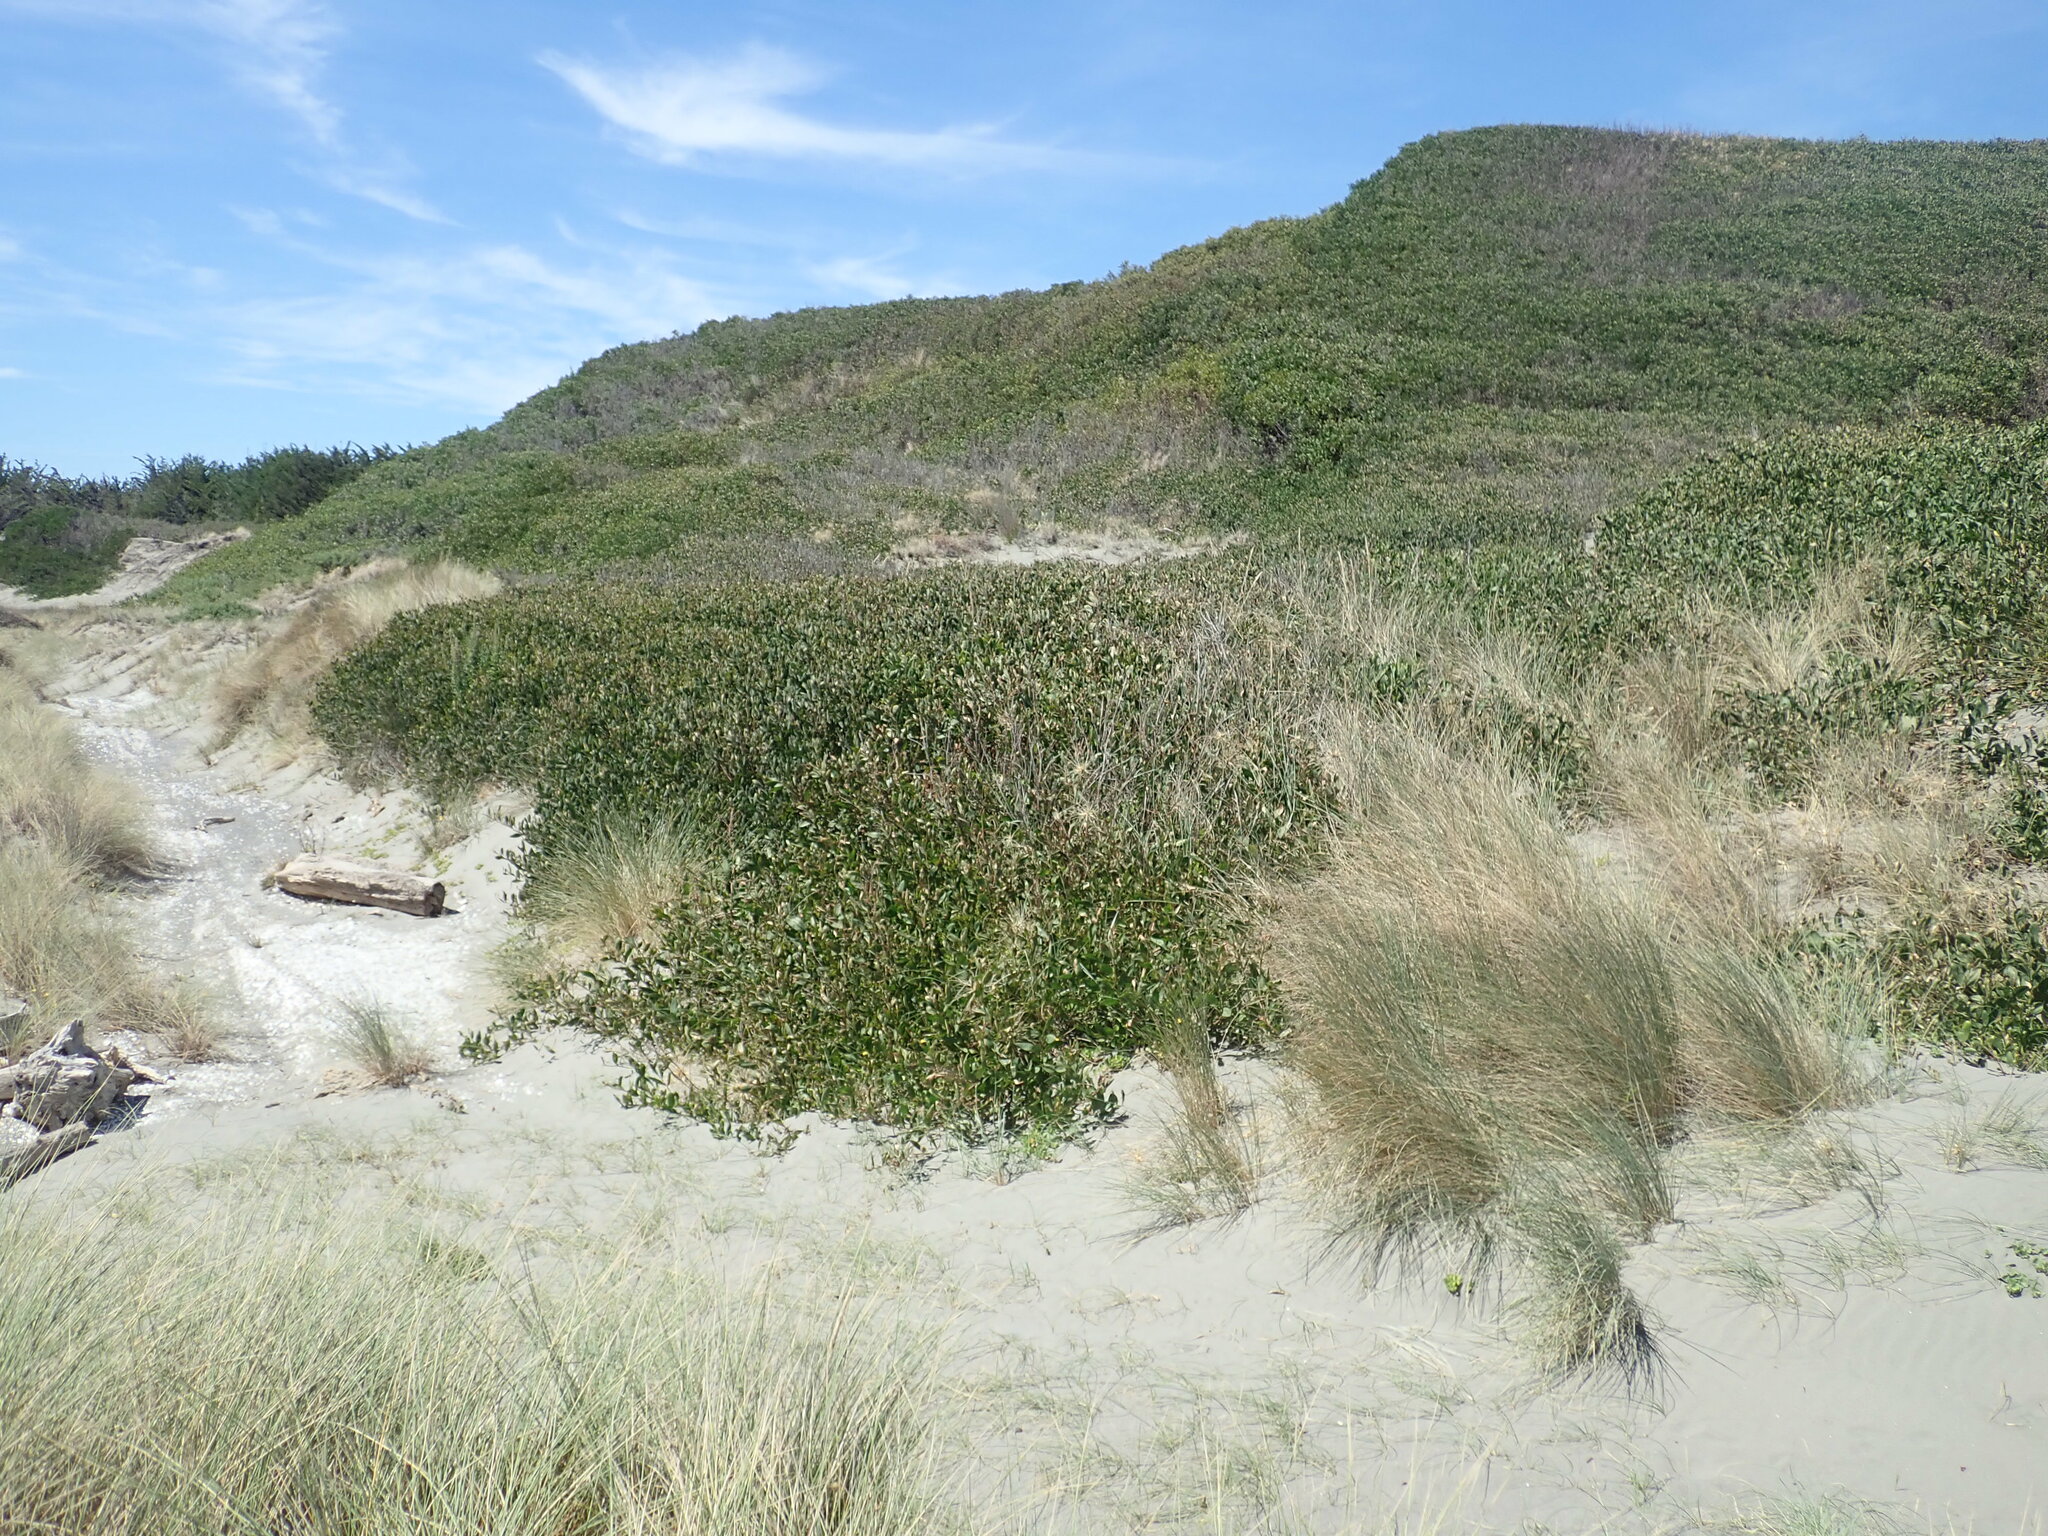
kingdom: Plantae
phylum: Tracheophyta
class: Magnoliopsida
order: Fabales
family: Fabaceae
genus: Acacia
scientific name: Acacia longifolia
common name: Sydney golden wattle
